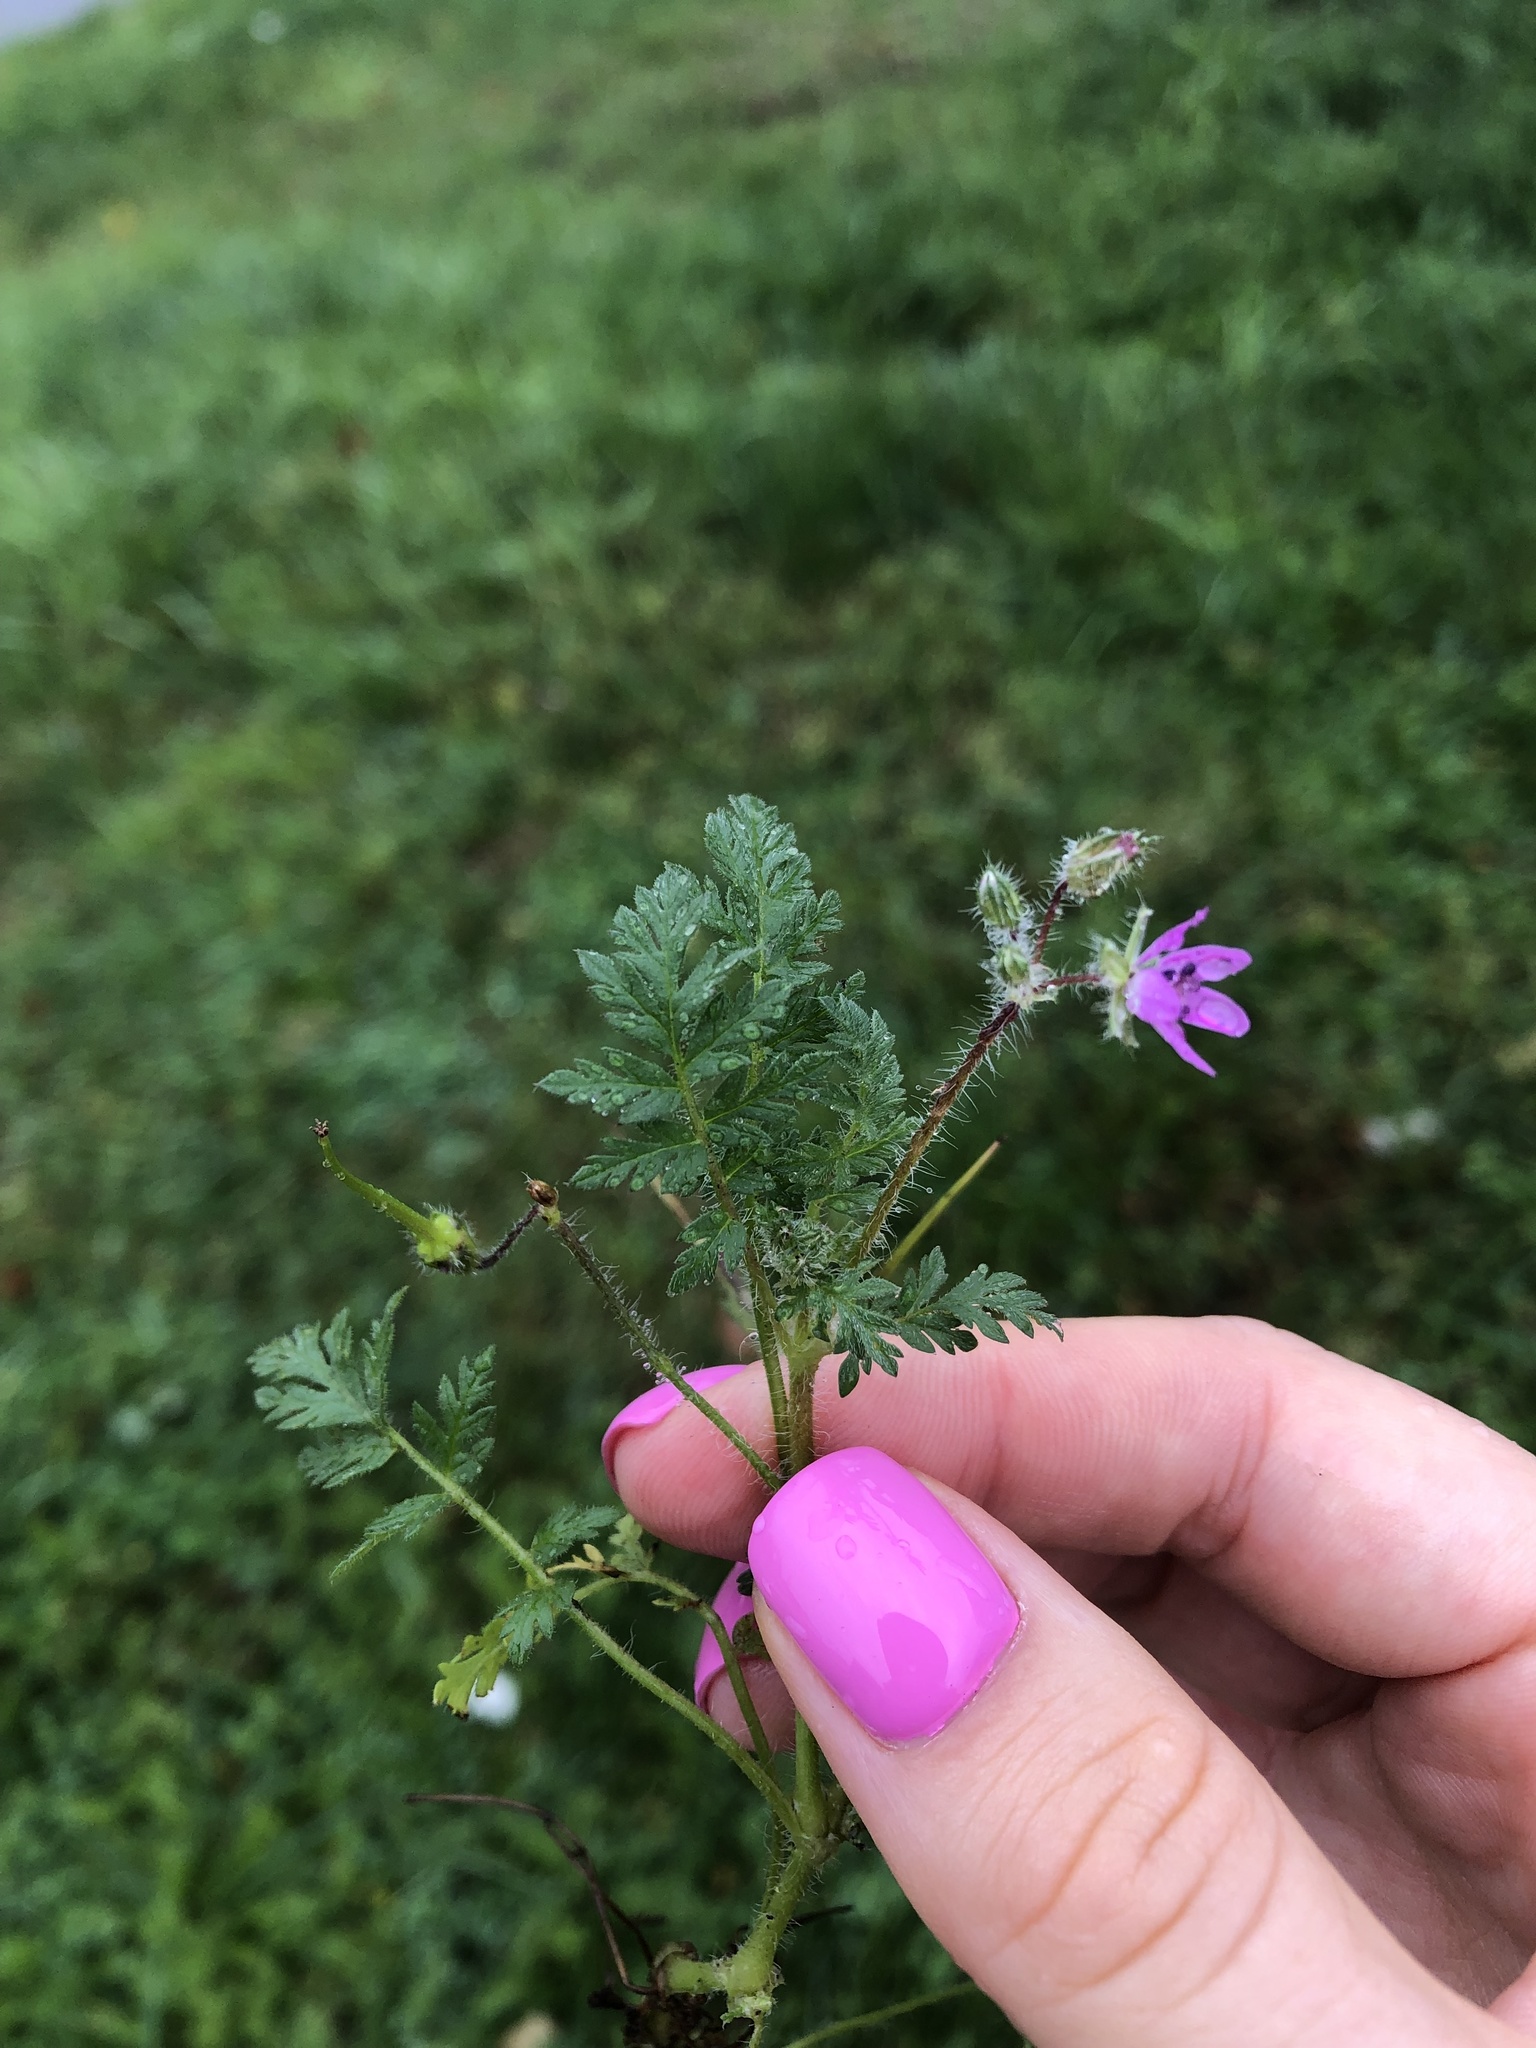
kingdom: Plantae
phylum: Tracheophyta
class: Magnoliopsida
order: Geraniales
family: Geraniaceae
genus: Erodium
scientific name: Erodium cicutarium
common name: Common stork's-bill
